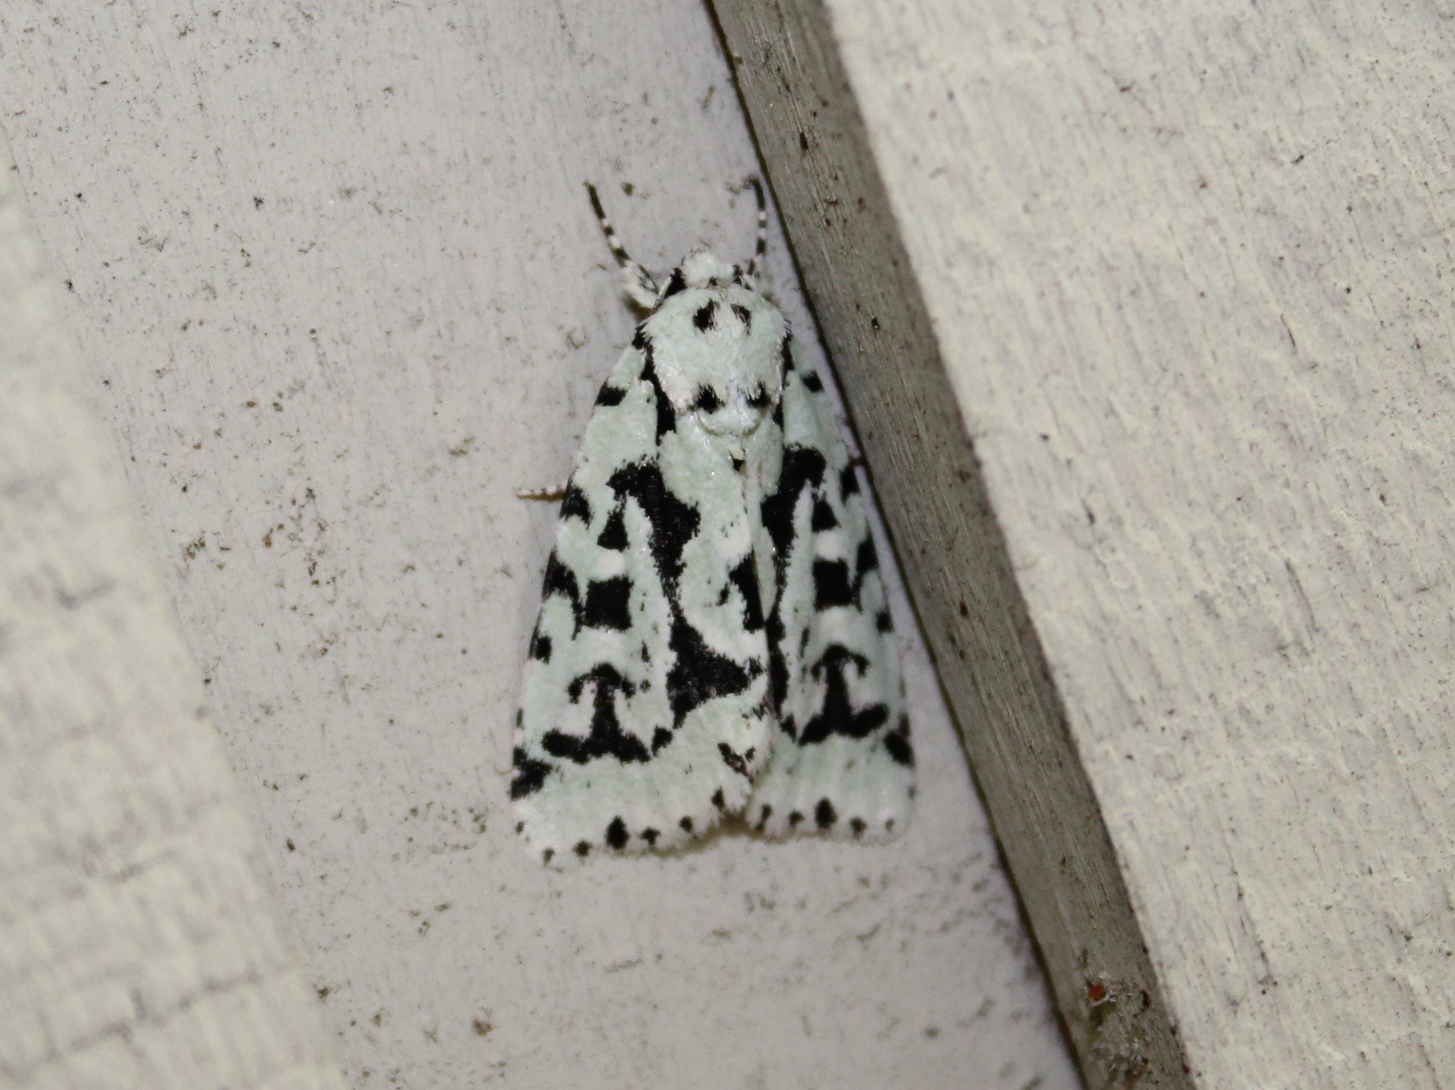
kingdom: Animalia
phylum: Arthropoda
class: Insecta
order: Lepidoptera
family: Noctuidae
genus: Acronicta
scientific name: Acronicta fallax
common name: Green marvel
